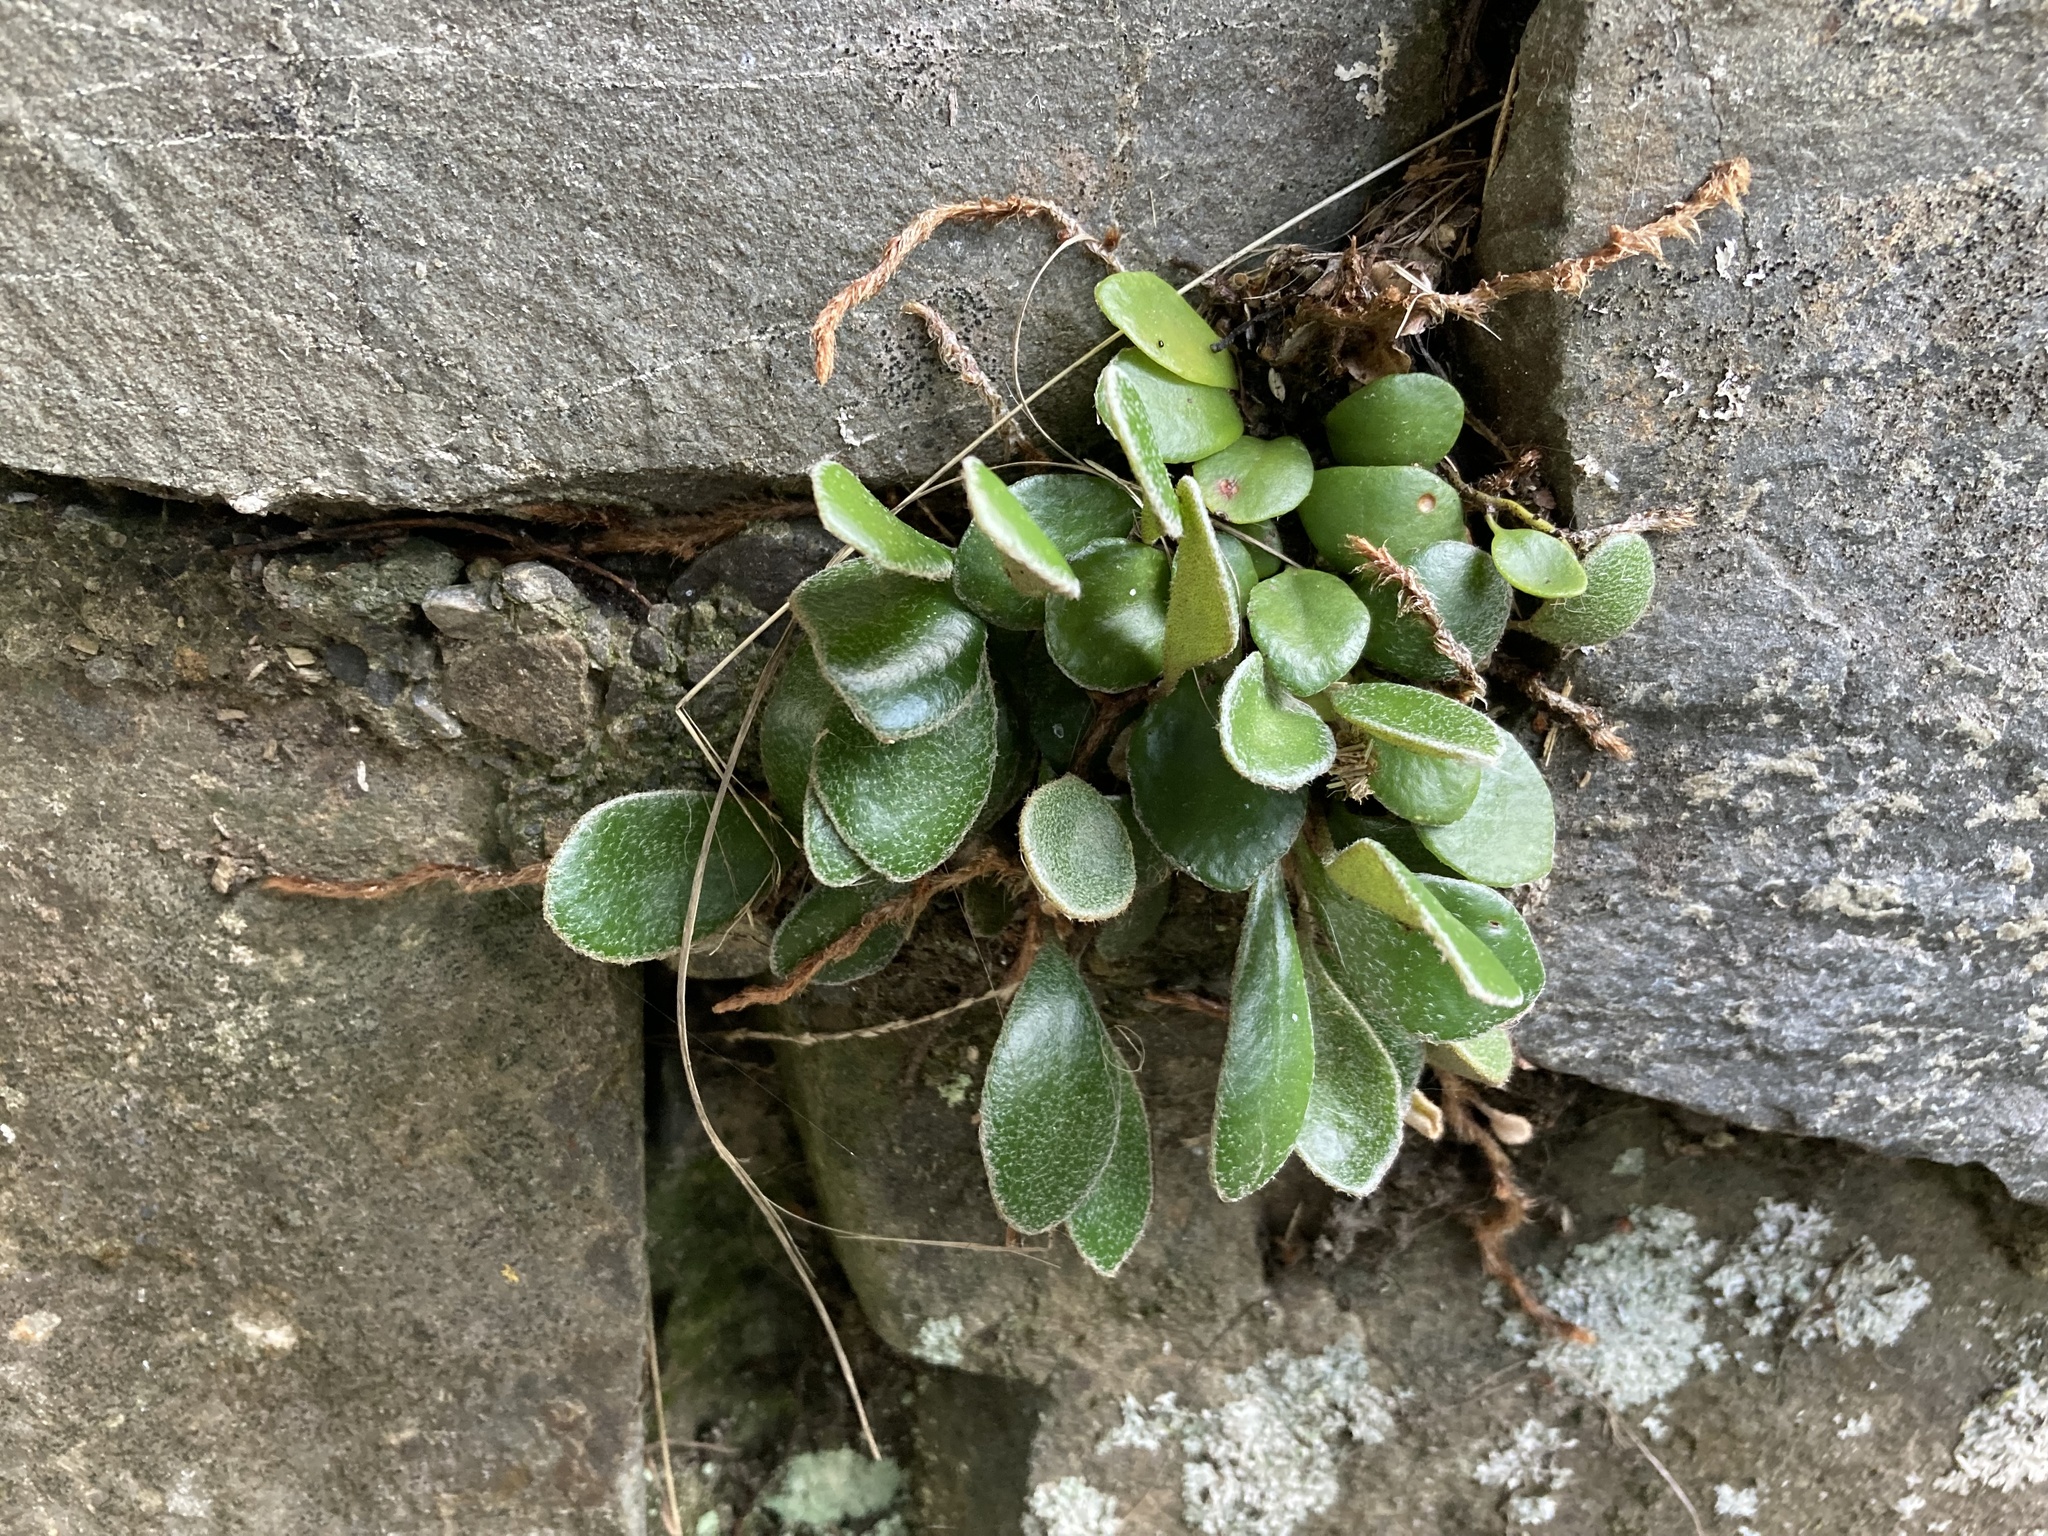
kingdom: Plantae
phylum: Tracheophyta
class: Polypodiopsida
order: Polypodiales
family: Polypodiaceae
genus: Pyrrosia
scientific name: Pyrrosia eleagnifolia
